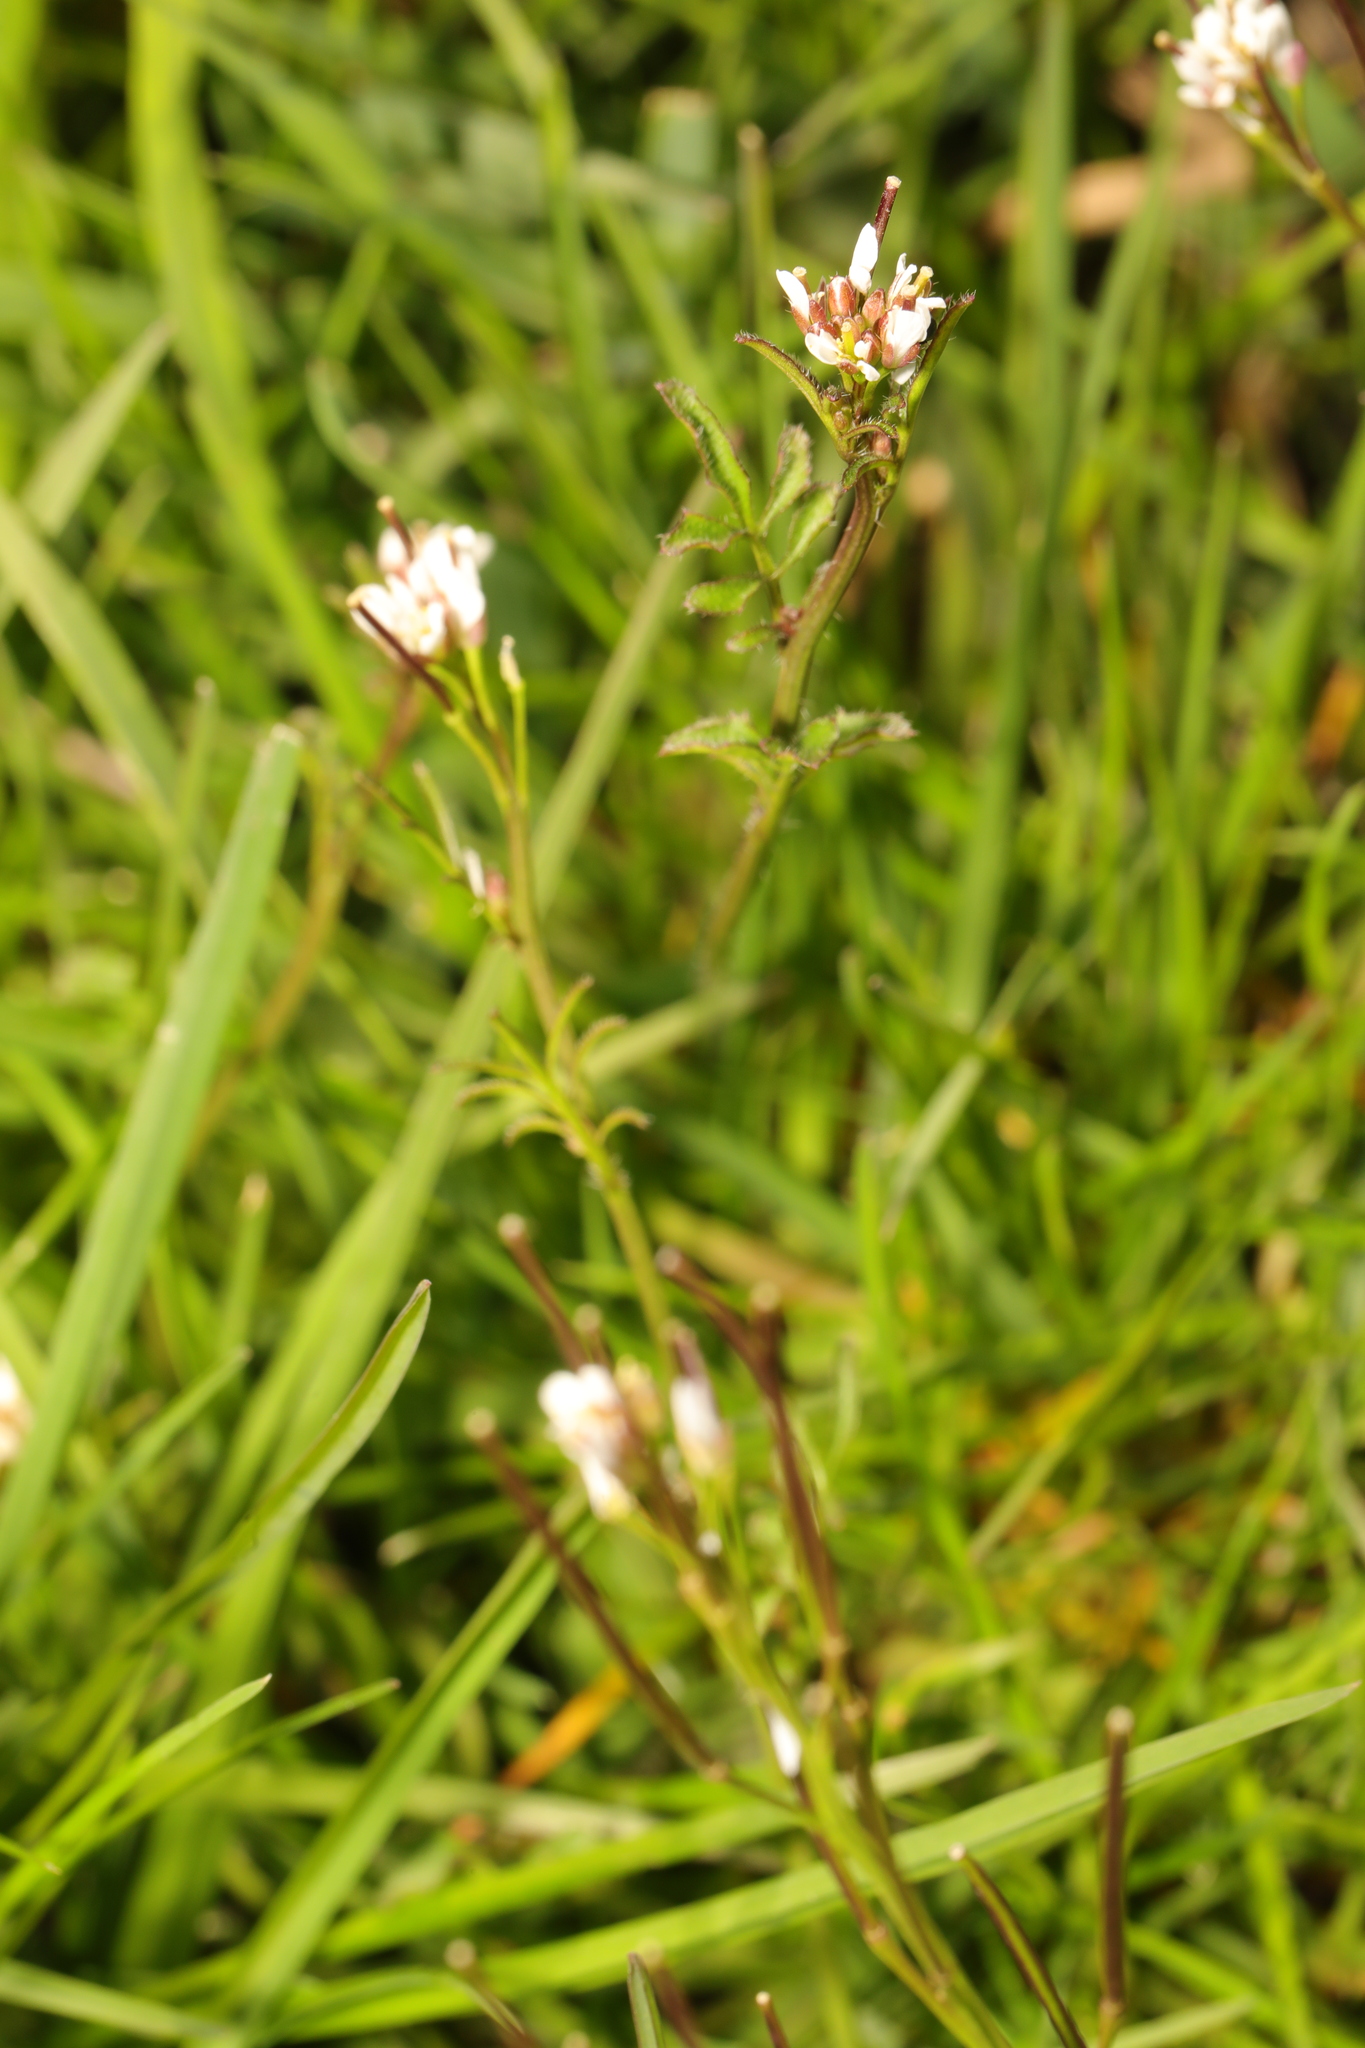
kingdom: Plantae
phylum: Tracheophyta
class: Magnoliopsida
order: Brassicales
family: Brassicaceae
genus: Cardamine
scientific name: Cardamine hirsuta
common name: Hairy bittercress
